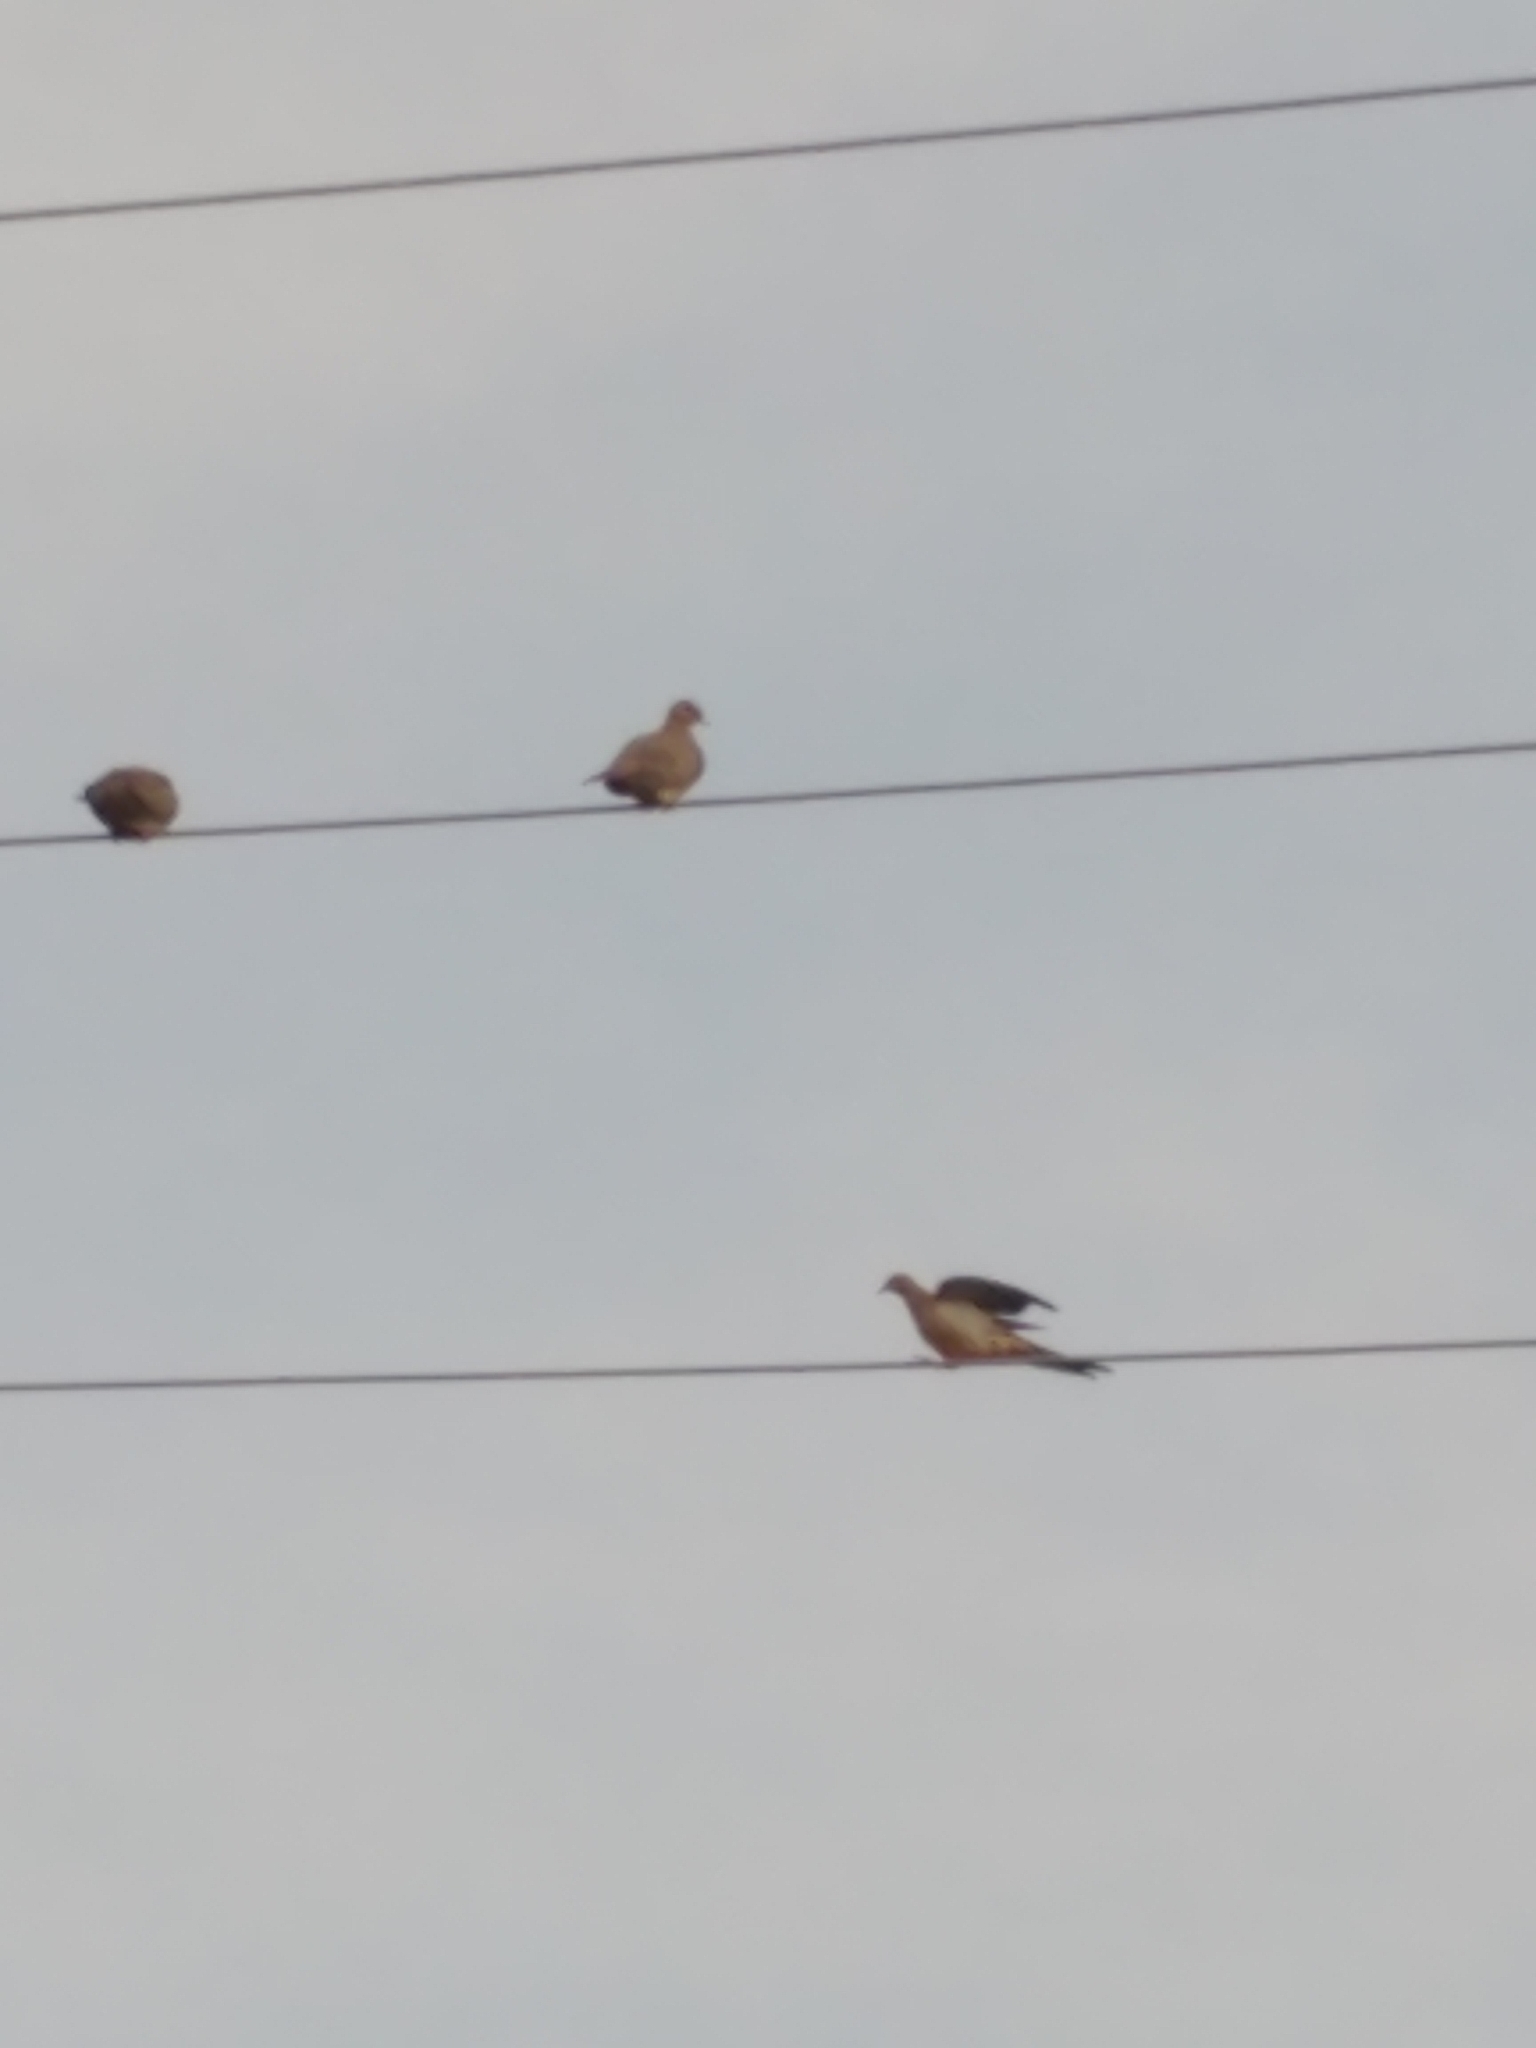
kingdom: Animalia
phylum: Chordata
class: Aves
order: Columbiformes
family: Columbidae
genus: Zenaida
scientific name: Zenaida macroura
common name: Mourning dove
